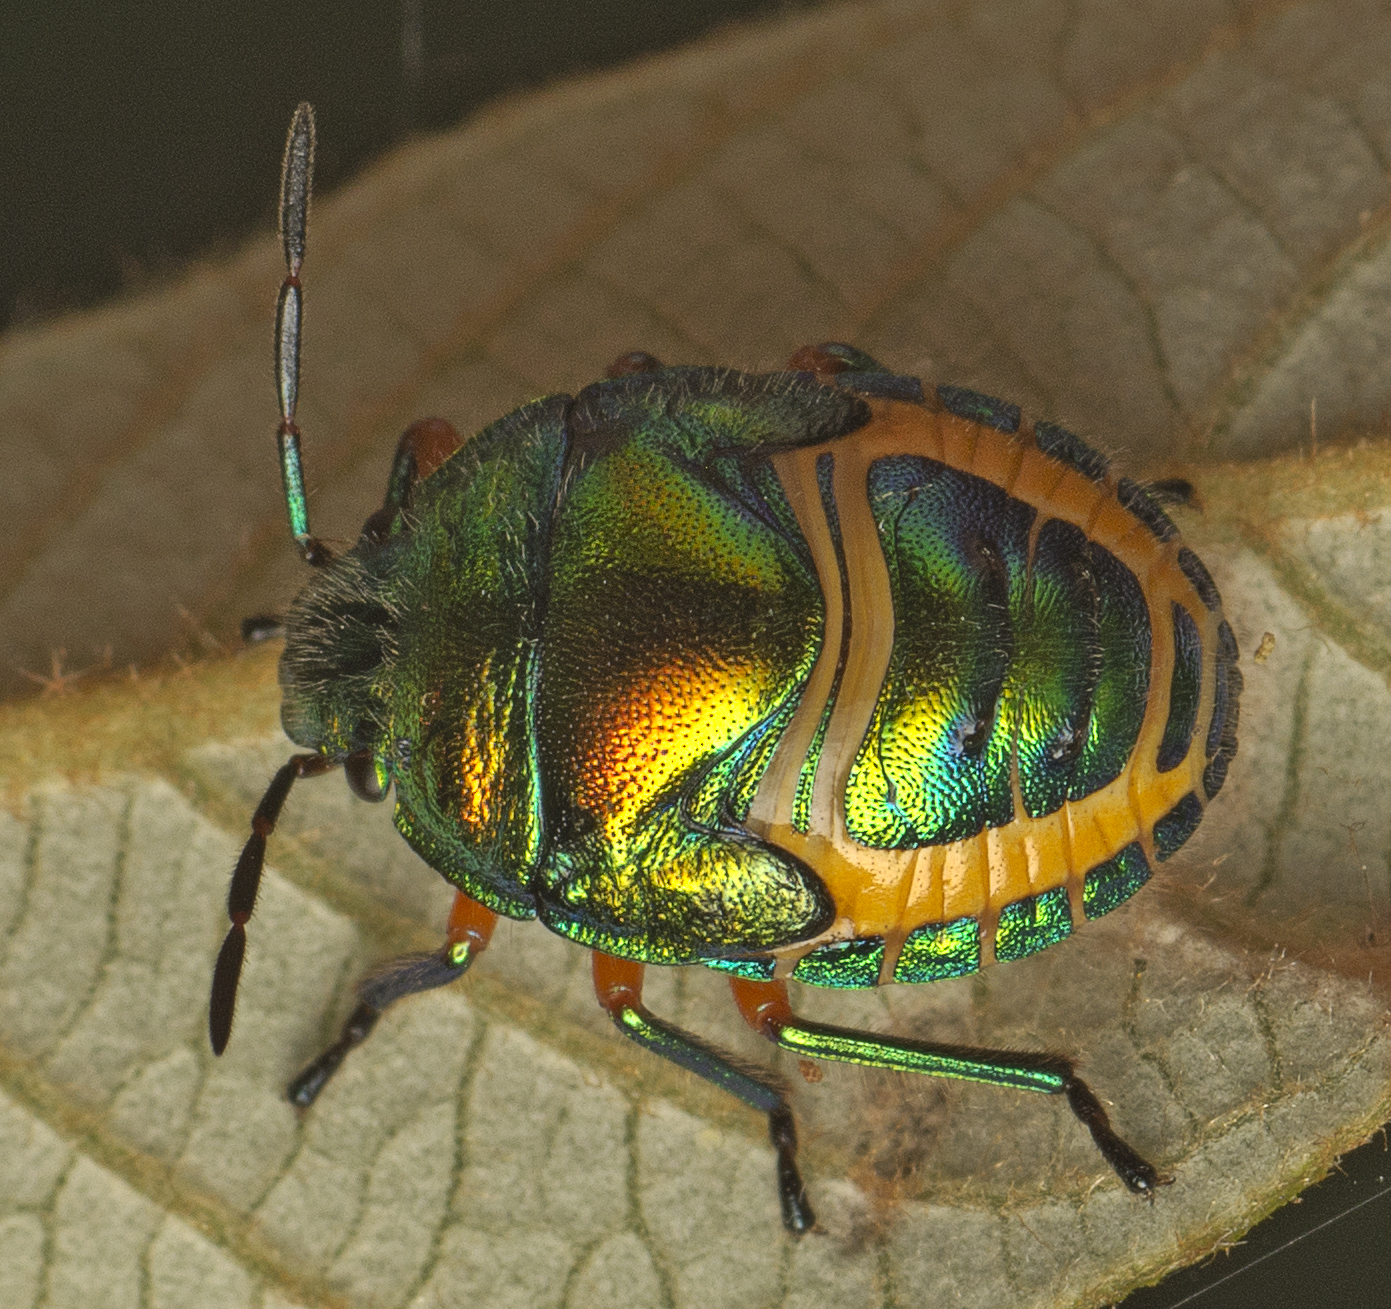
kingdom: Animalia
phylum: Arthropoda
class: Insecta
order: Hemiptera
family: Scutelleridae
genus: Lampromicra
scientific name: Lampromicra senator
